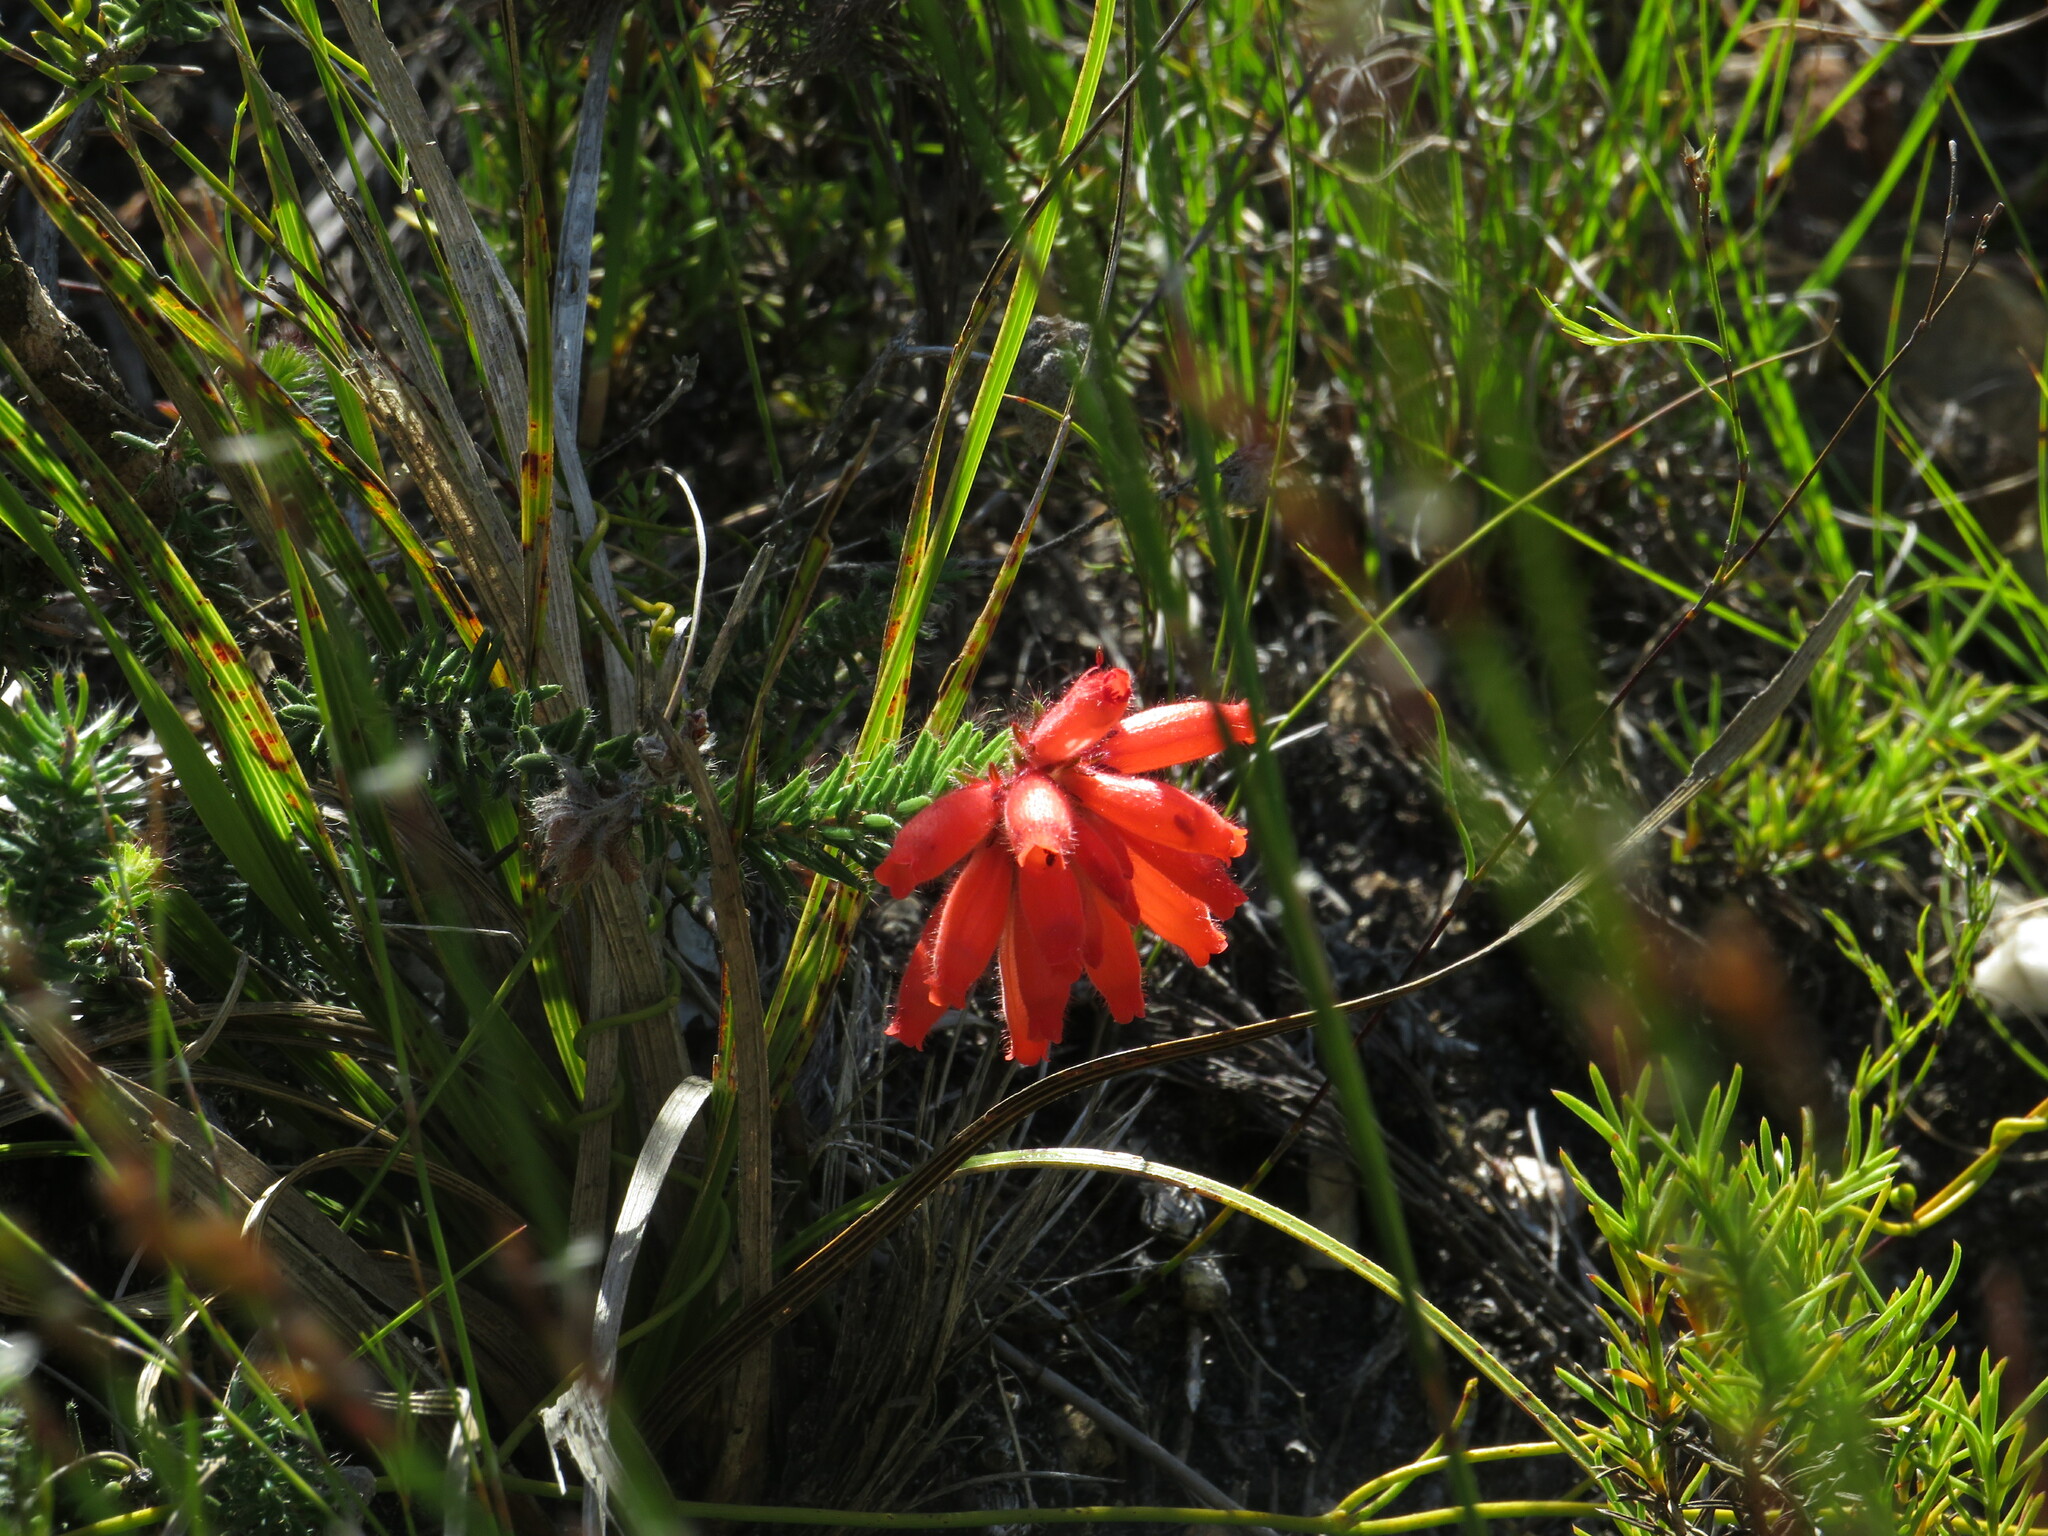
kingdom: Plantae
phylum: Tracheophyta
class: Magnoliopsida
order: Ericales
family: Ericaceae
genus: Erica
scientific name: Erica cerinthoides
